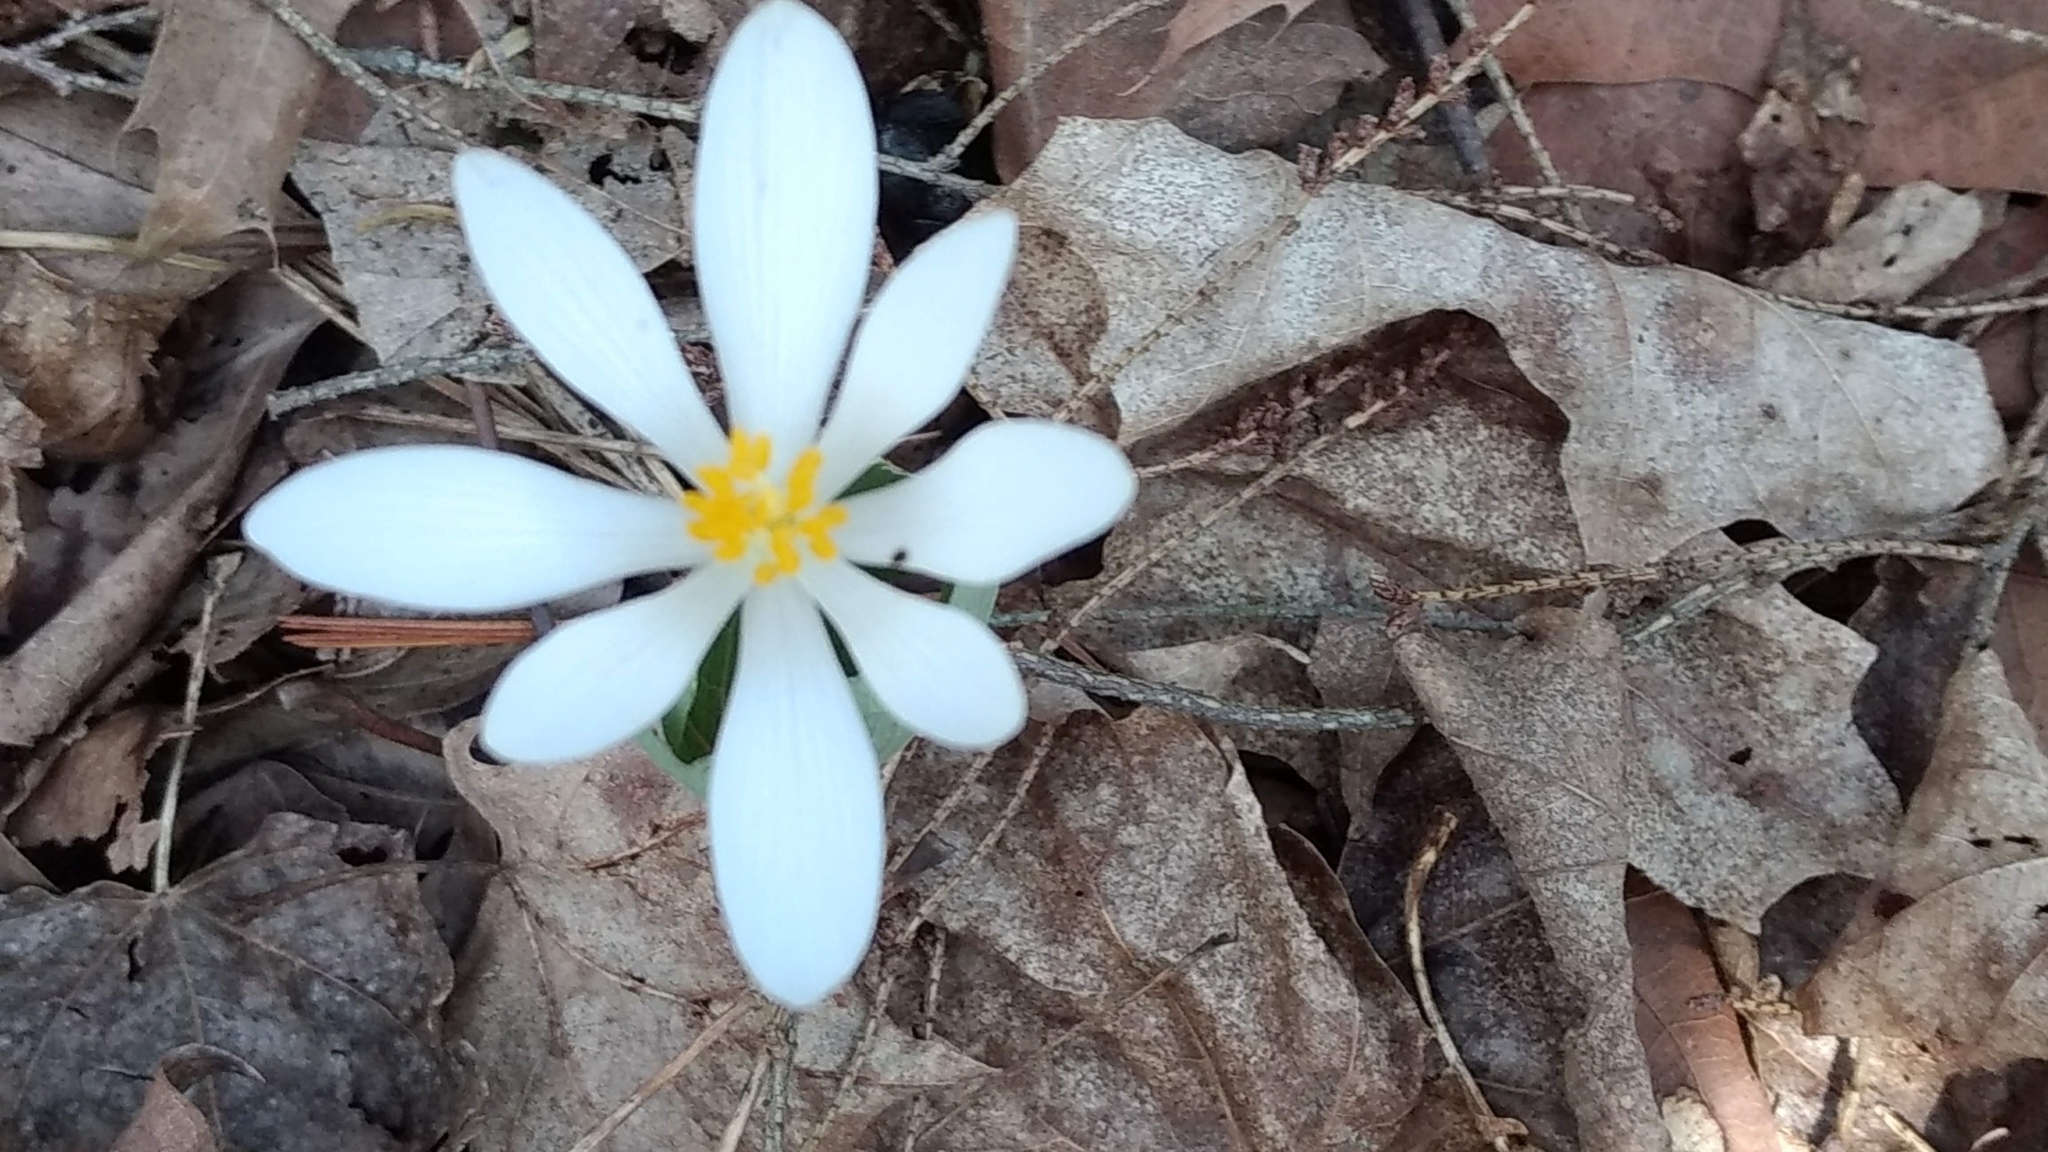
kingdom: Plantae
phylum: Tracheophyta
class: Magnoliopsida
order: Ranunculales
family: Papaveraceae
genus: Sanguinaria
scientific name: Sanguinaria canadensis
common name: Bloodroot
